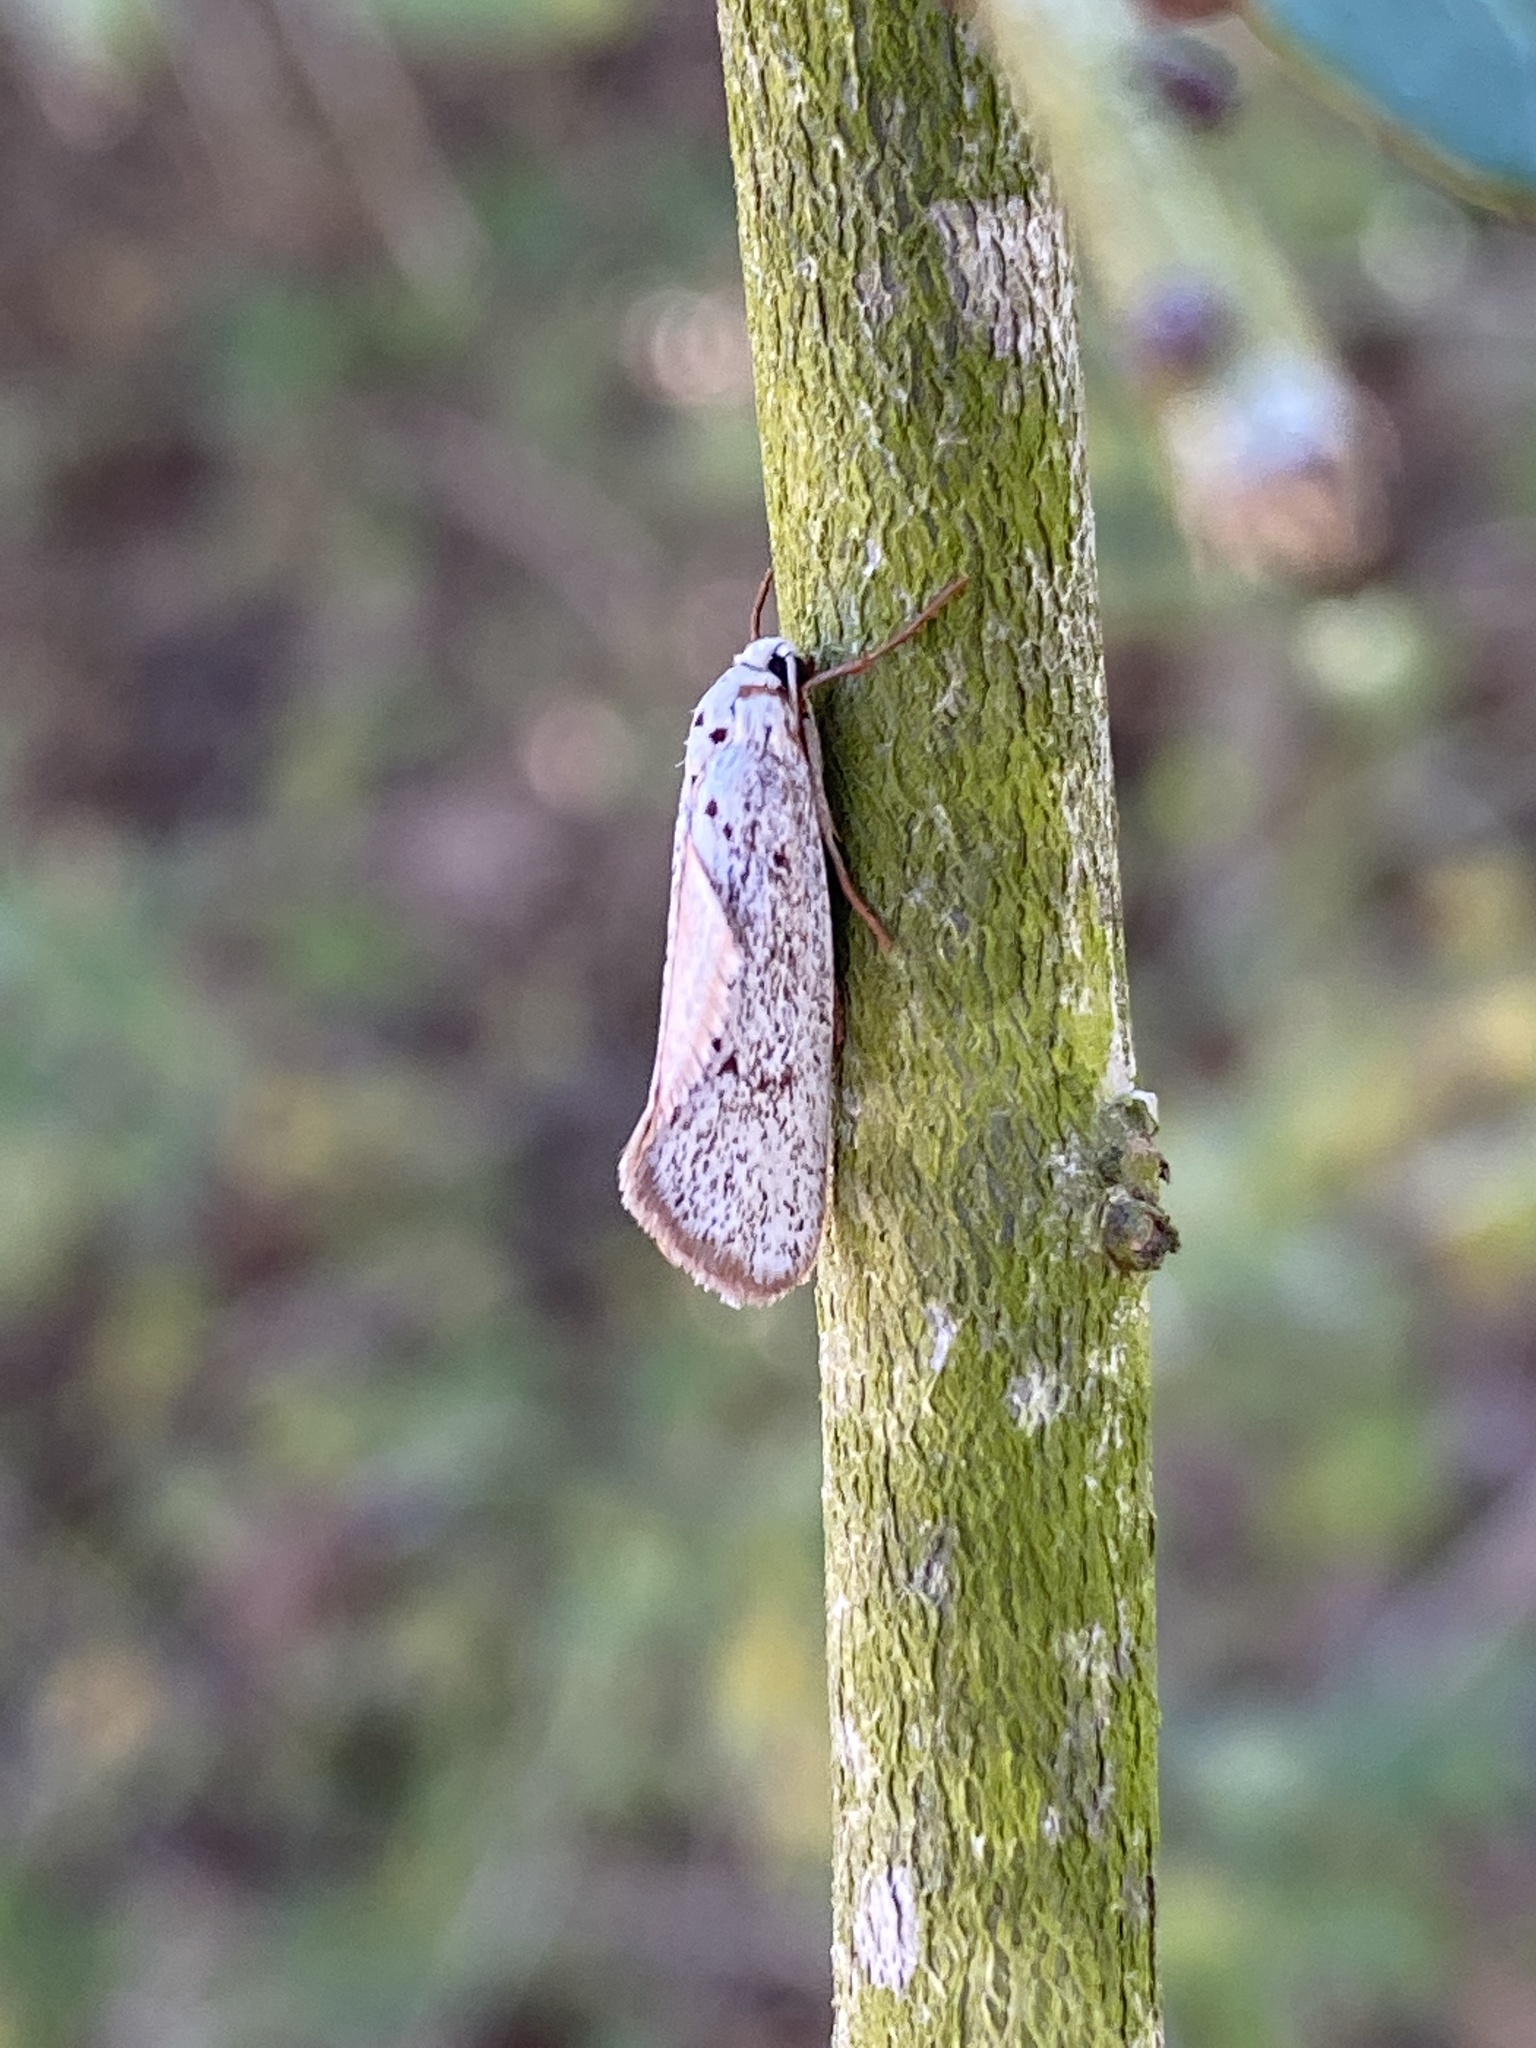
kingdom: Animalia
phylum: Arthropoda
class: Insecta
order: Lepidoptera
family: Lacturidae
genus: Lactura
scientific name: Lactura
